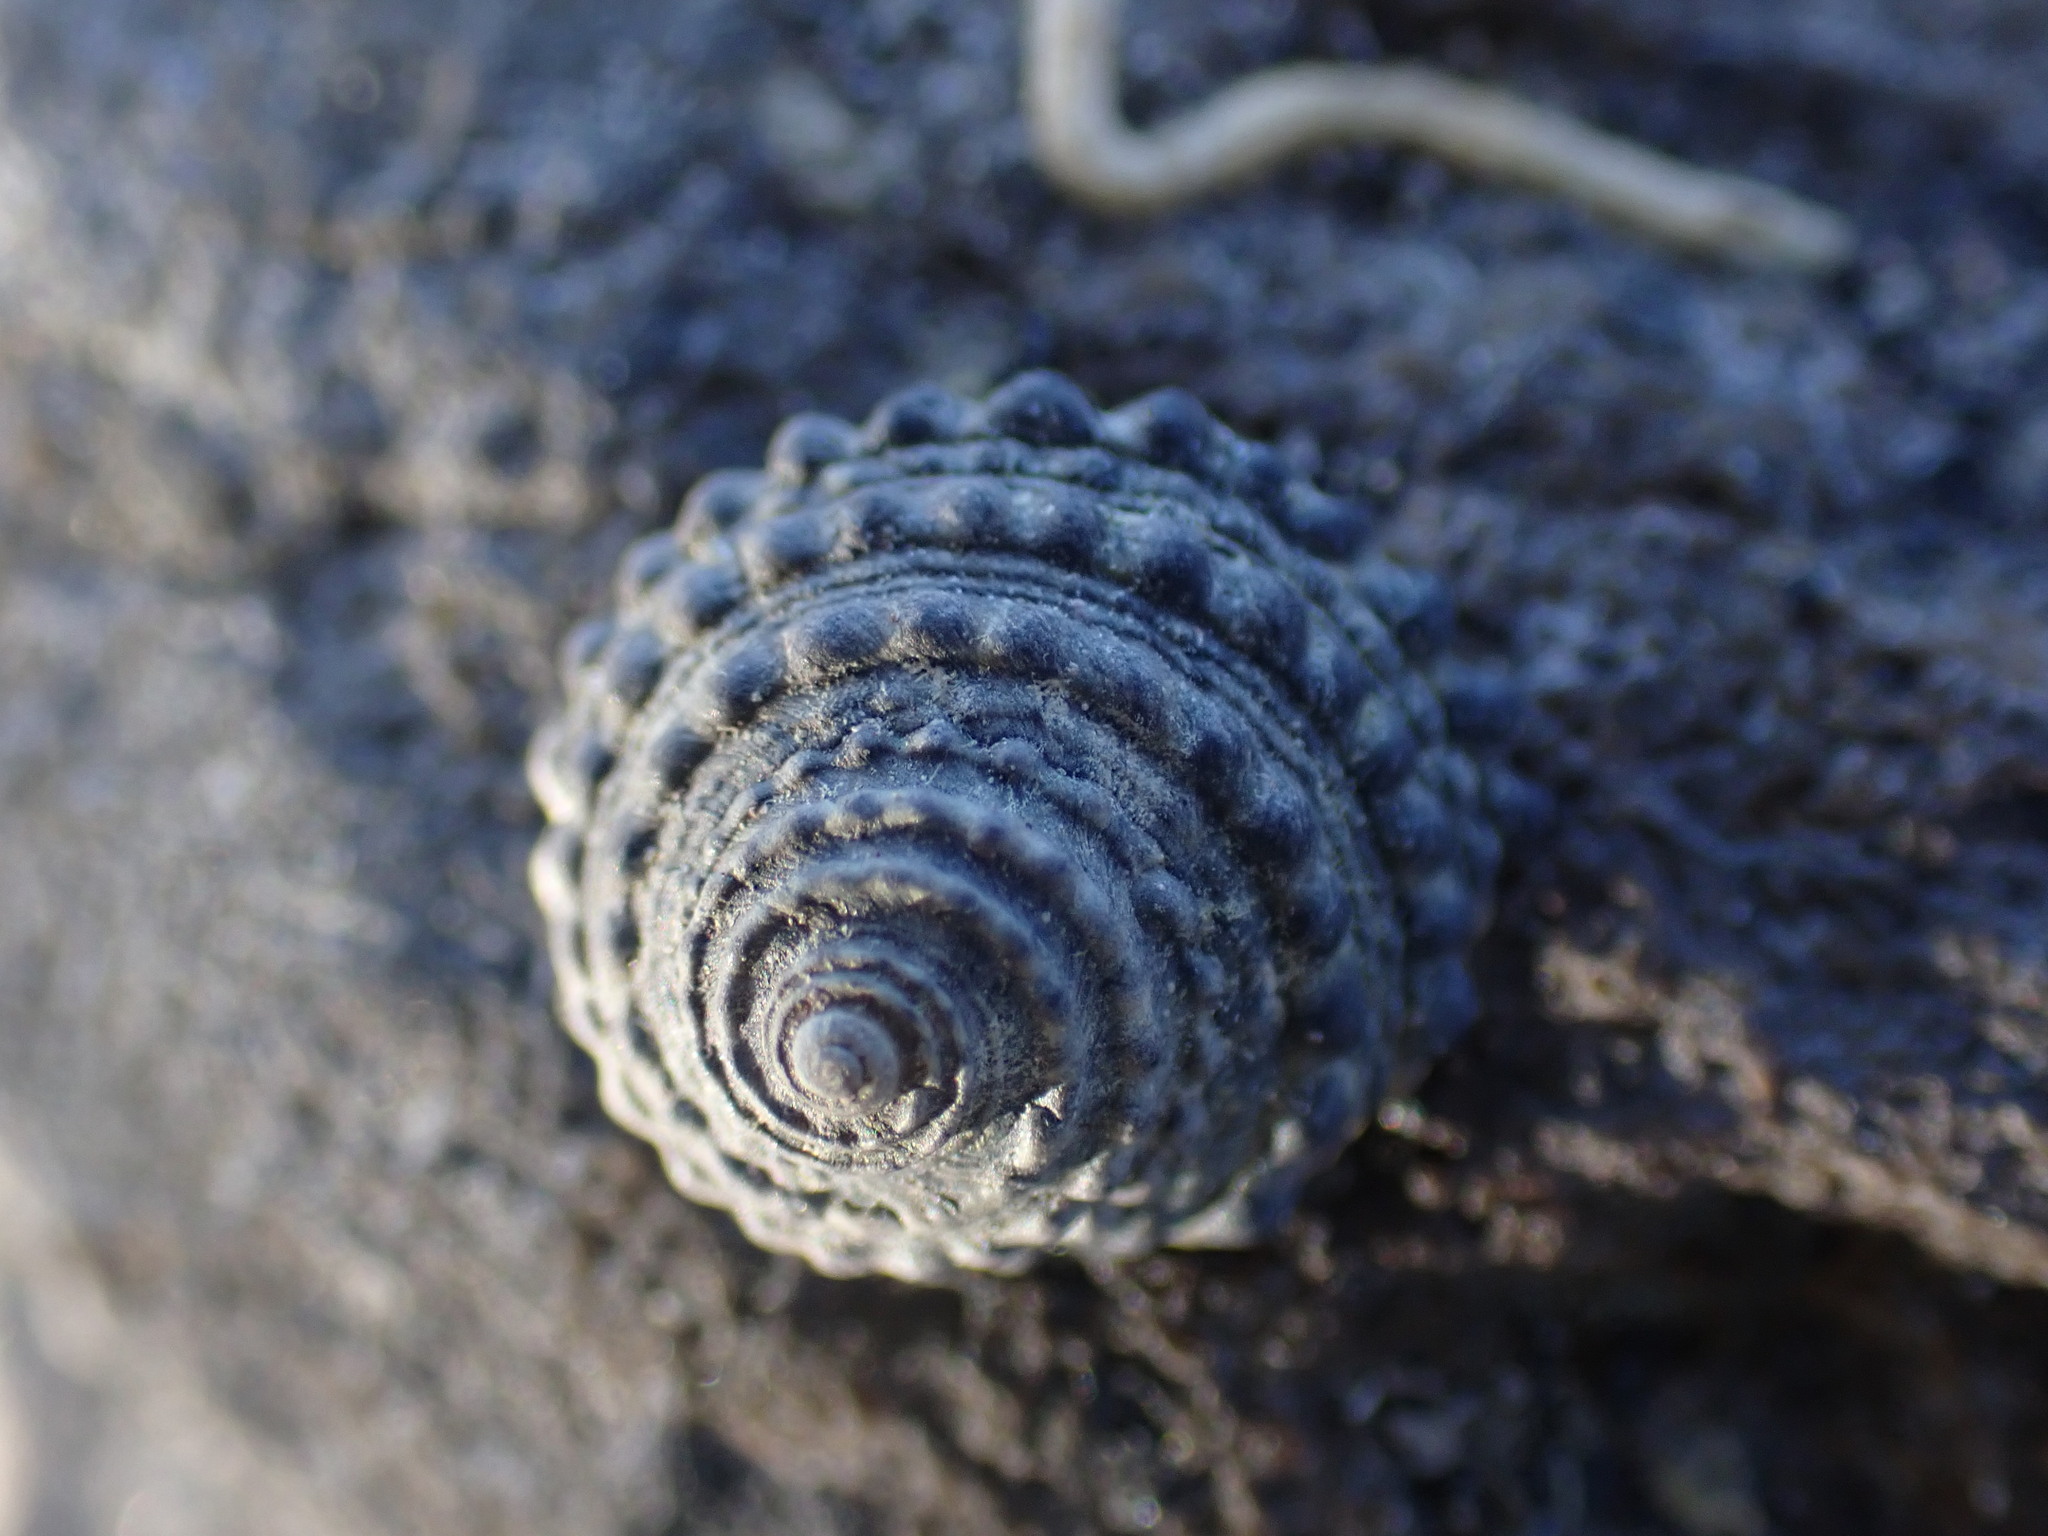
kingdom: Animalia
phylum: Mollusca
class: Gastropoda
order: Trochida
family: Trochidae
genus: Diloma
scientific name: Diloma bicanaliculatum
